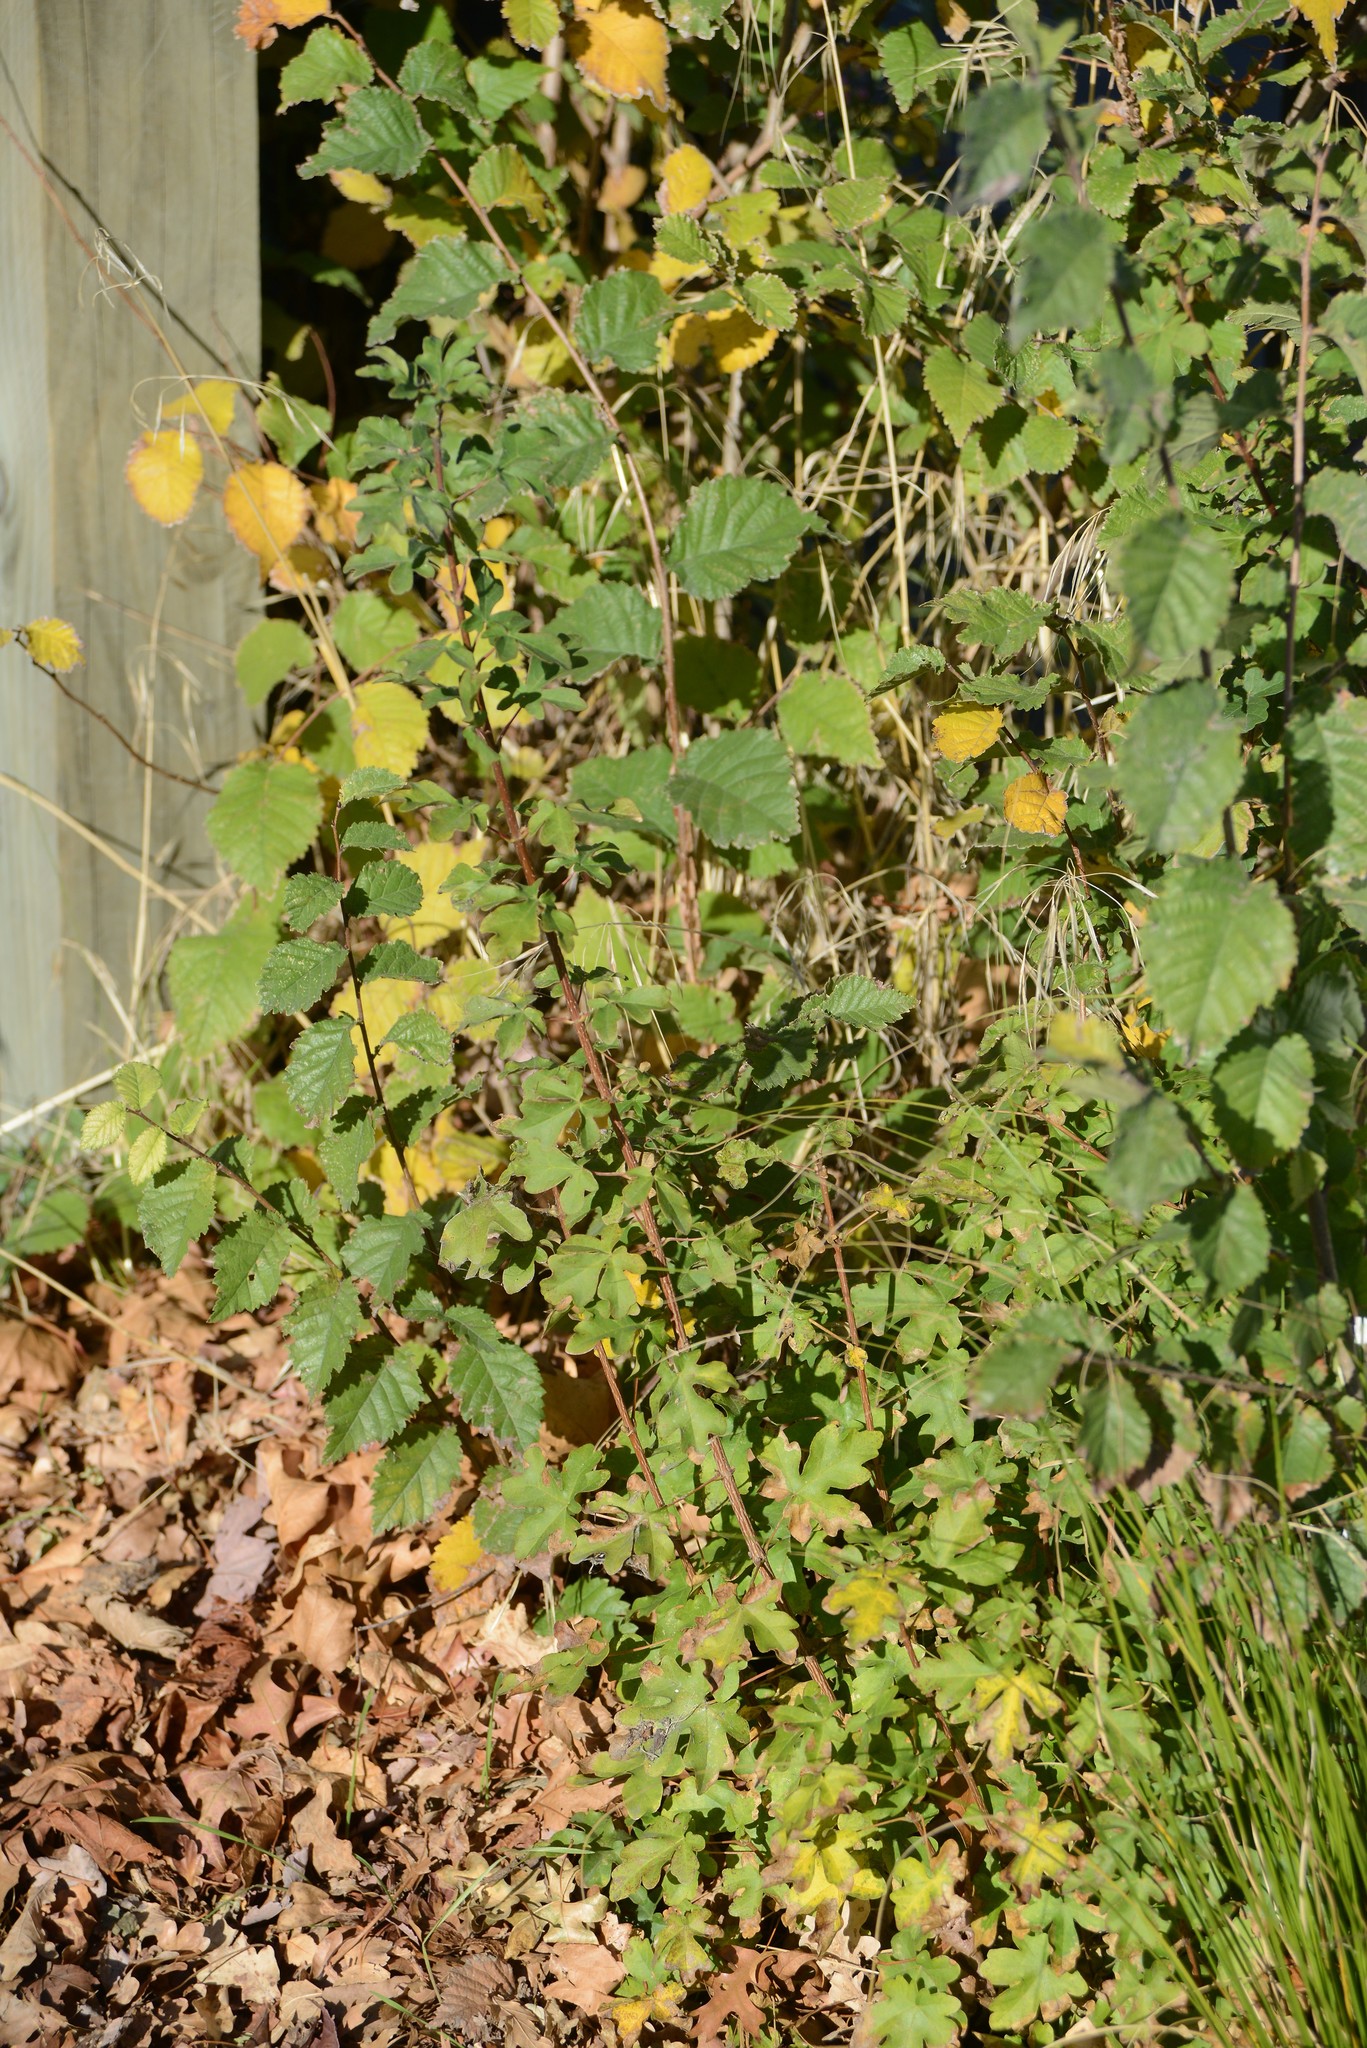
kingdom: Plantae
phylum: Tracheophyta
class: Magnoliopsida
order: Sapindales
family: Sapindaceae
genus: Acer
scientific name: Acer campestre
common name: Field maple
